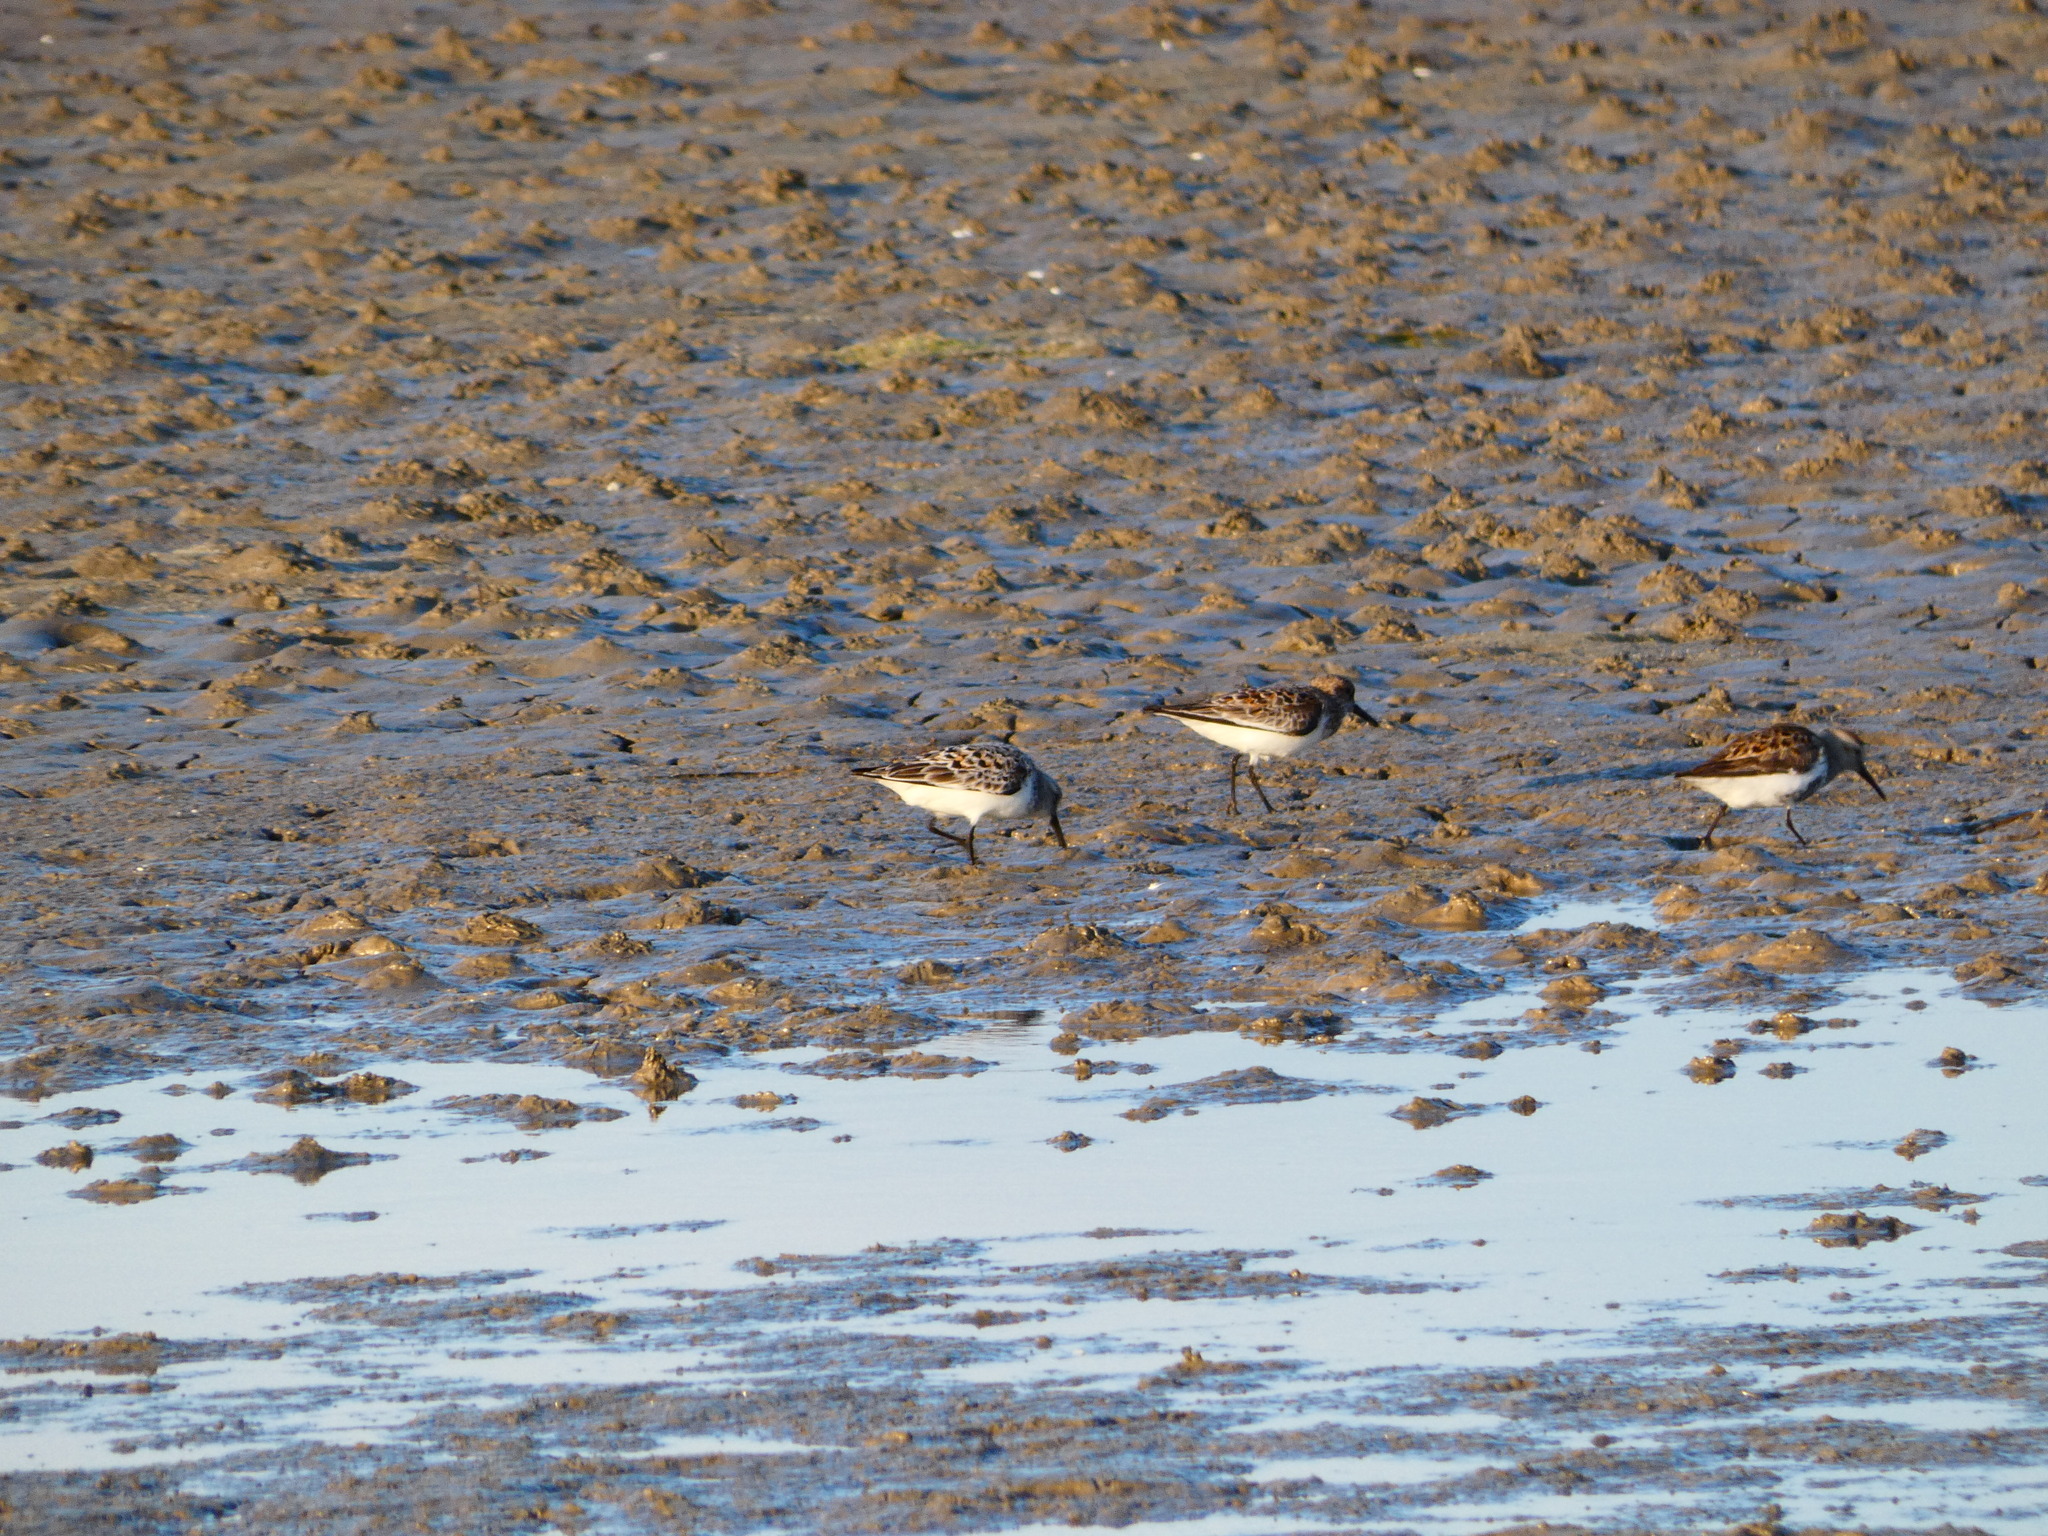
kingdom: Animalia
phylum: Chordata
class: Aves
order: Charadriiformes
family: Scolopacidae
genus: Calidris
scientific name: Calidris alpina
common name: Dunlin
